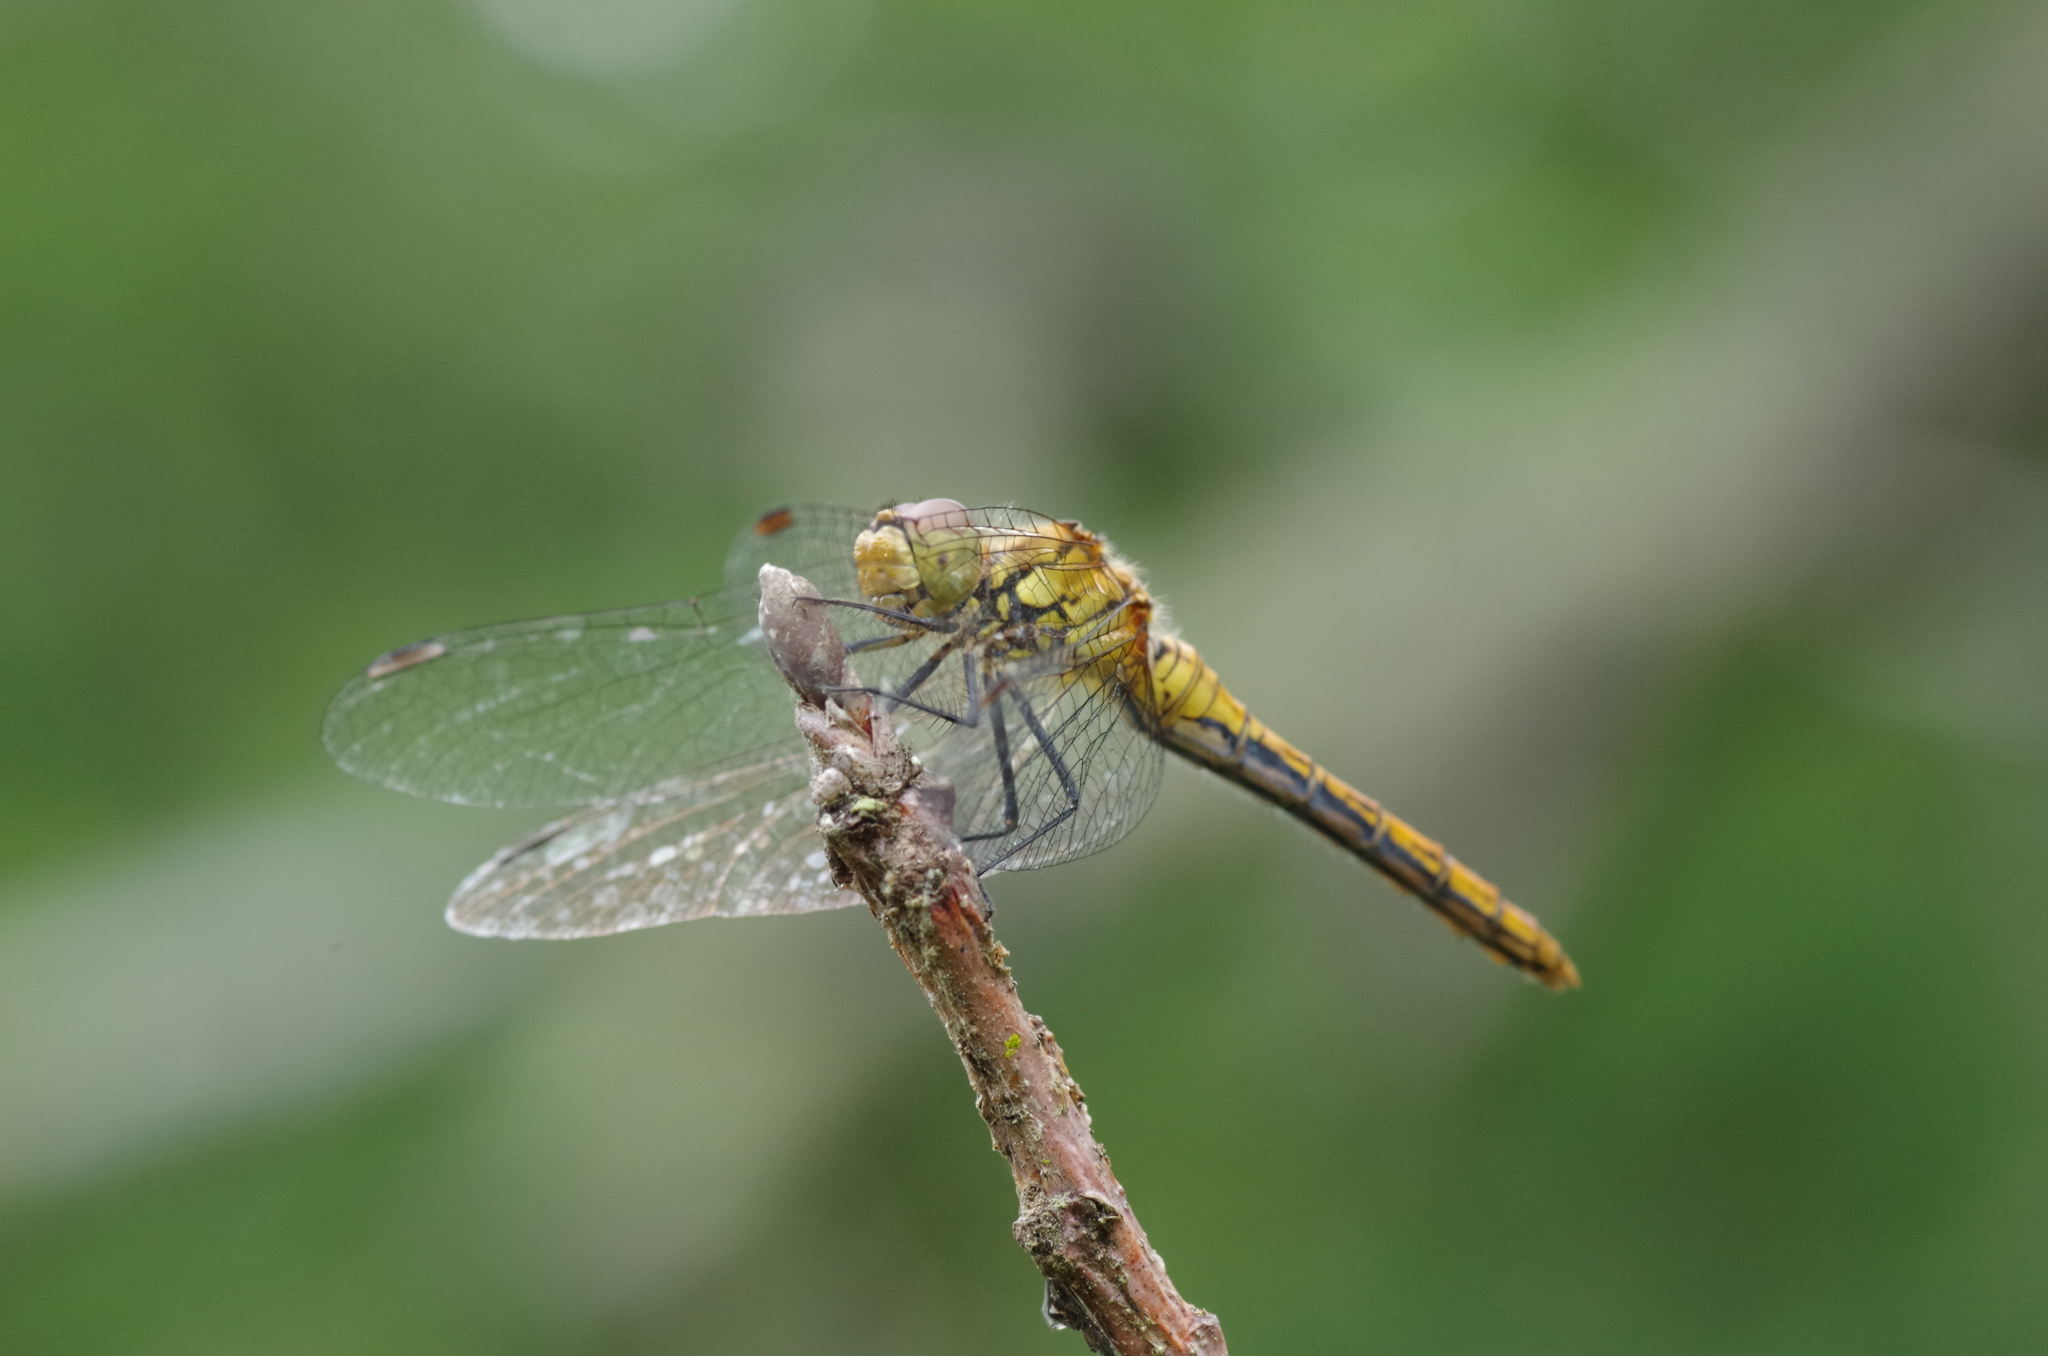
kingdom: Animalia
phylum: Arthropoda
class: Insecta
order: Odonata
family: Libellulidae
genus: Sympetrum
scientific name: Sympetrum sanguineum
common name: Ruddy darter
